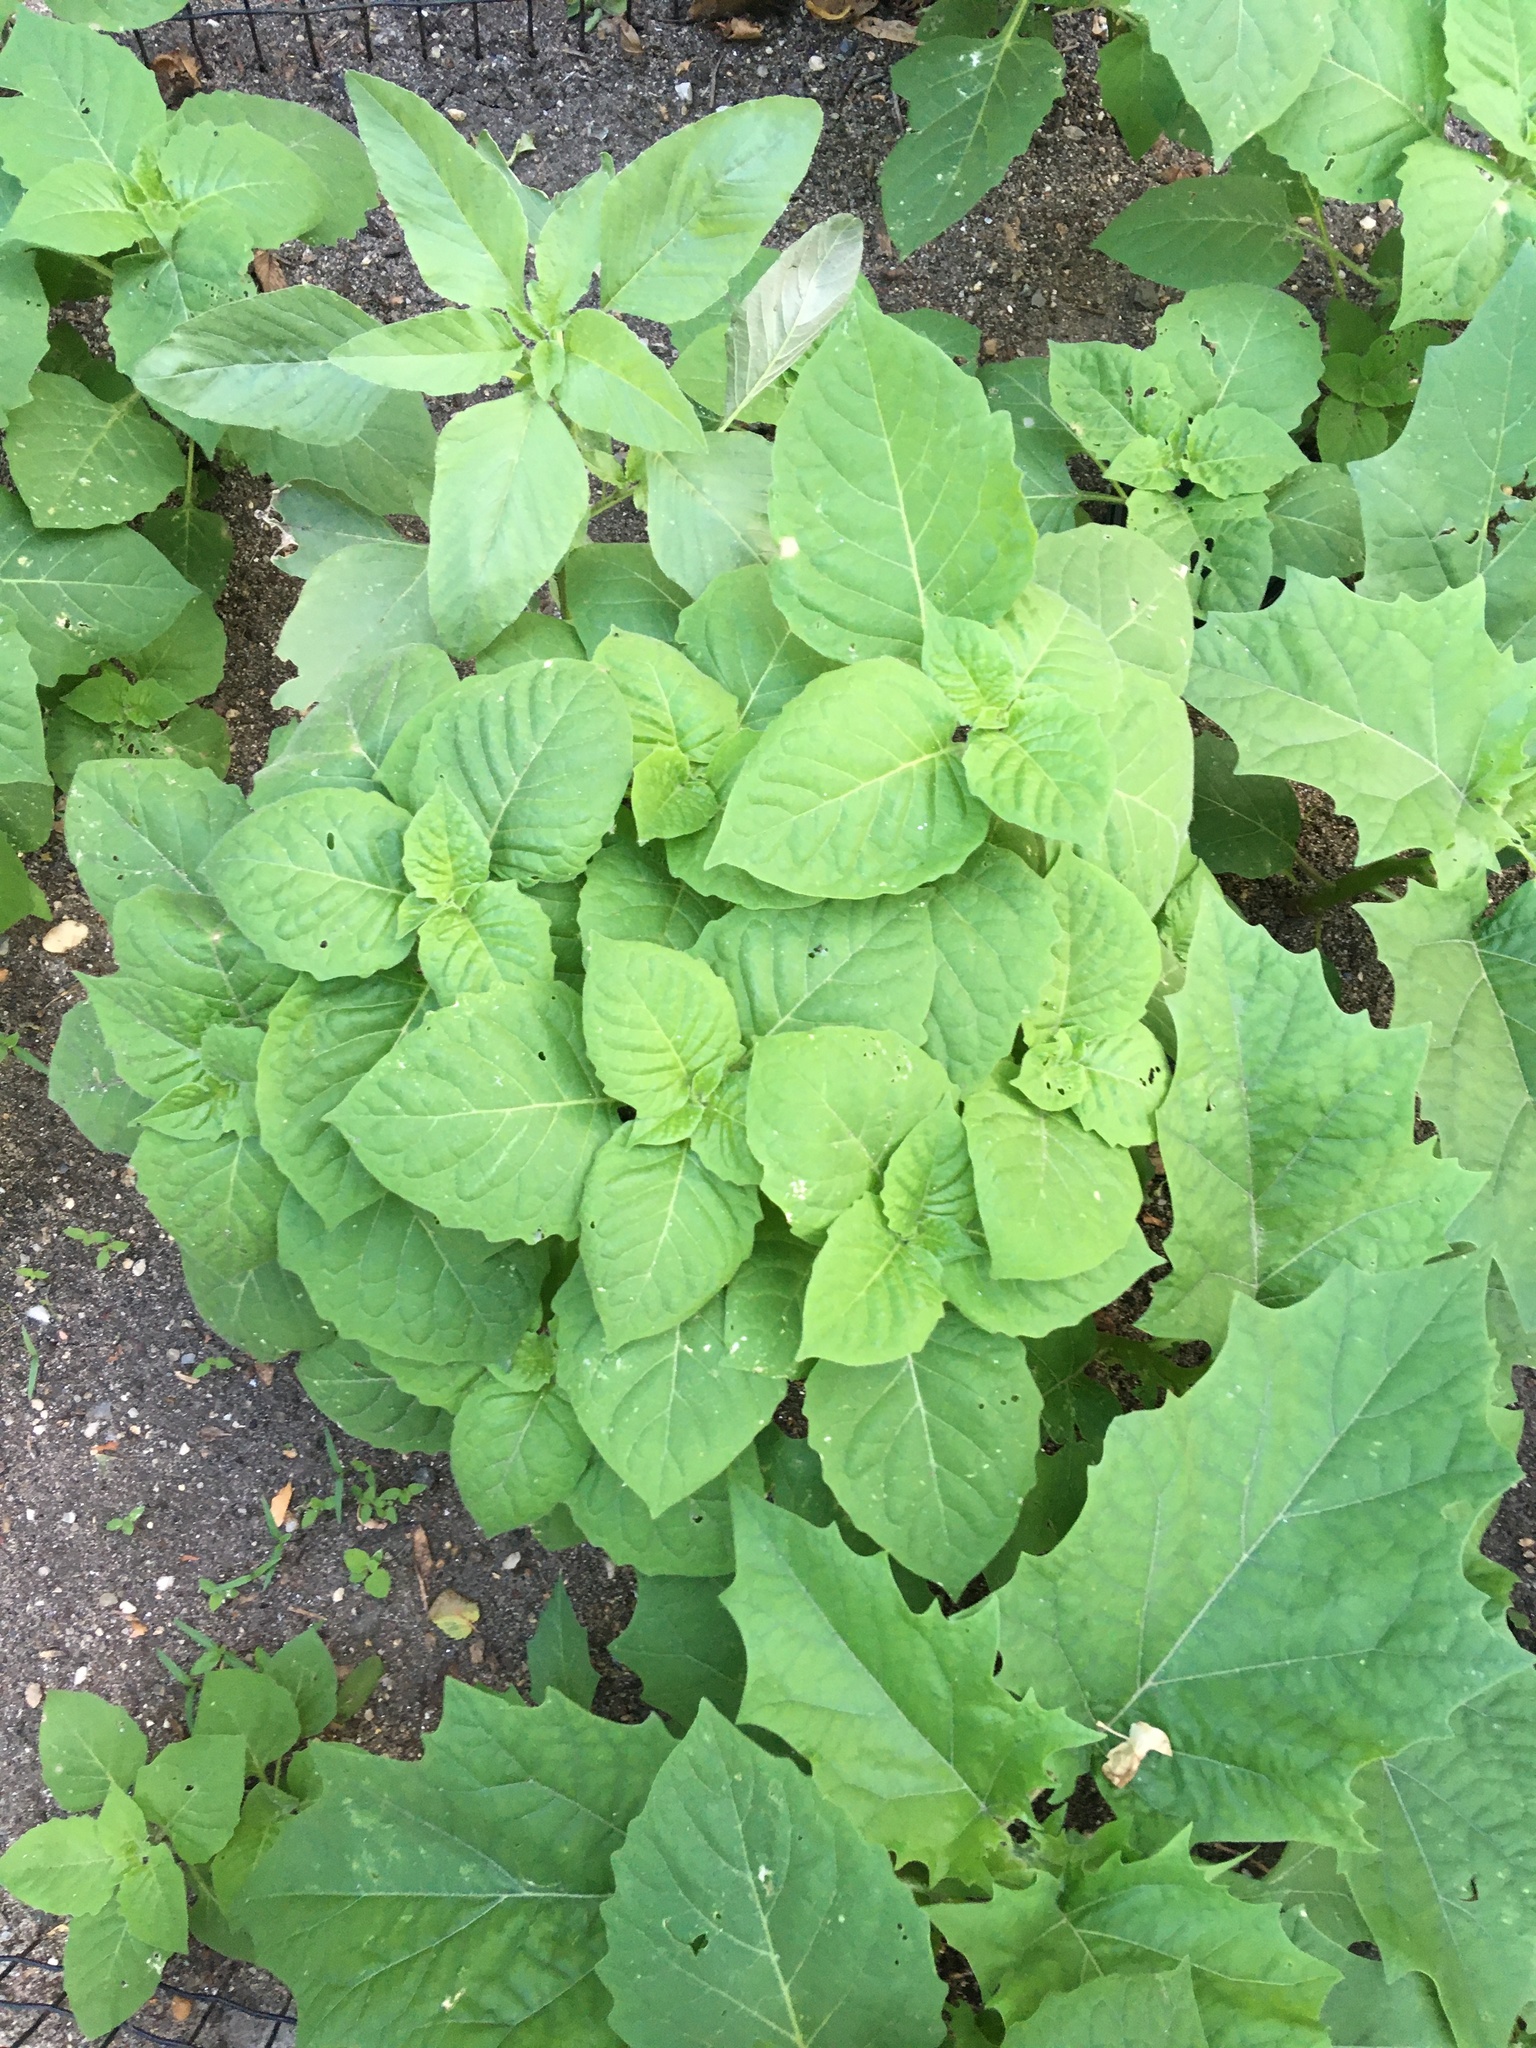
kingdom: Plantae
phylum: Tracheophyta
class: Magnoliopsida
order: Solanales
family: Solanaceae
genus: Solanum
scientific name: Solanum nigrum
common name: Black nightshade
